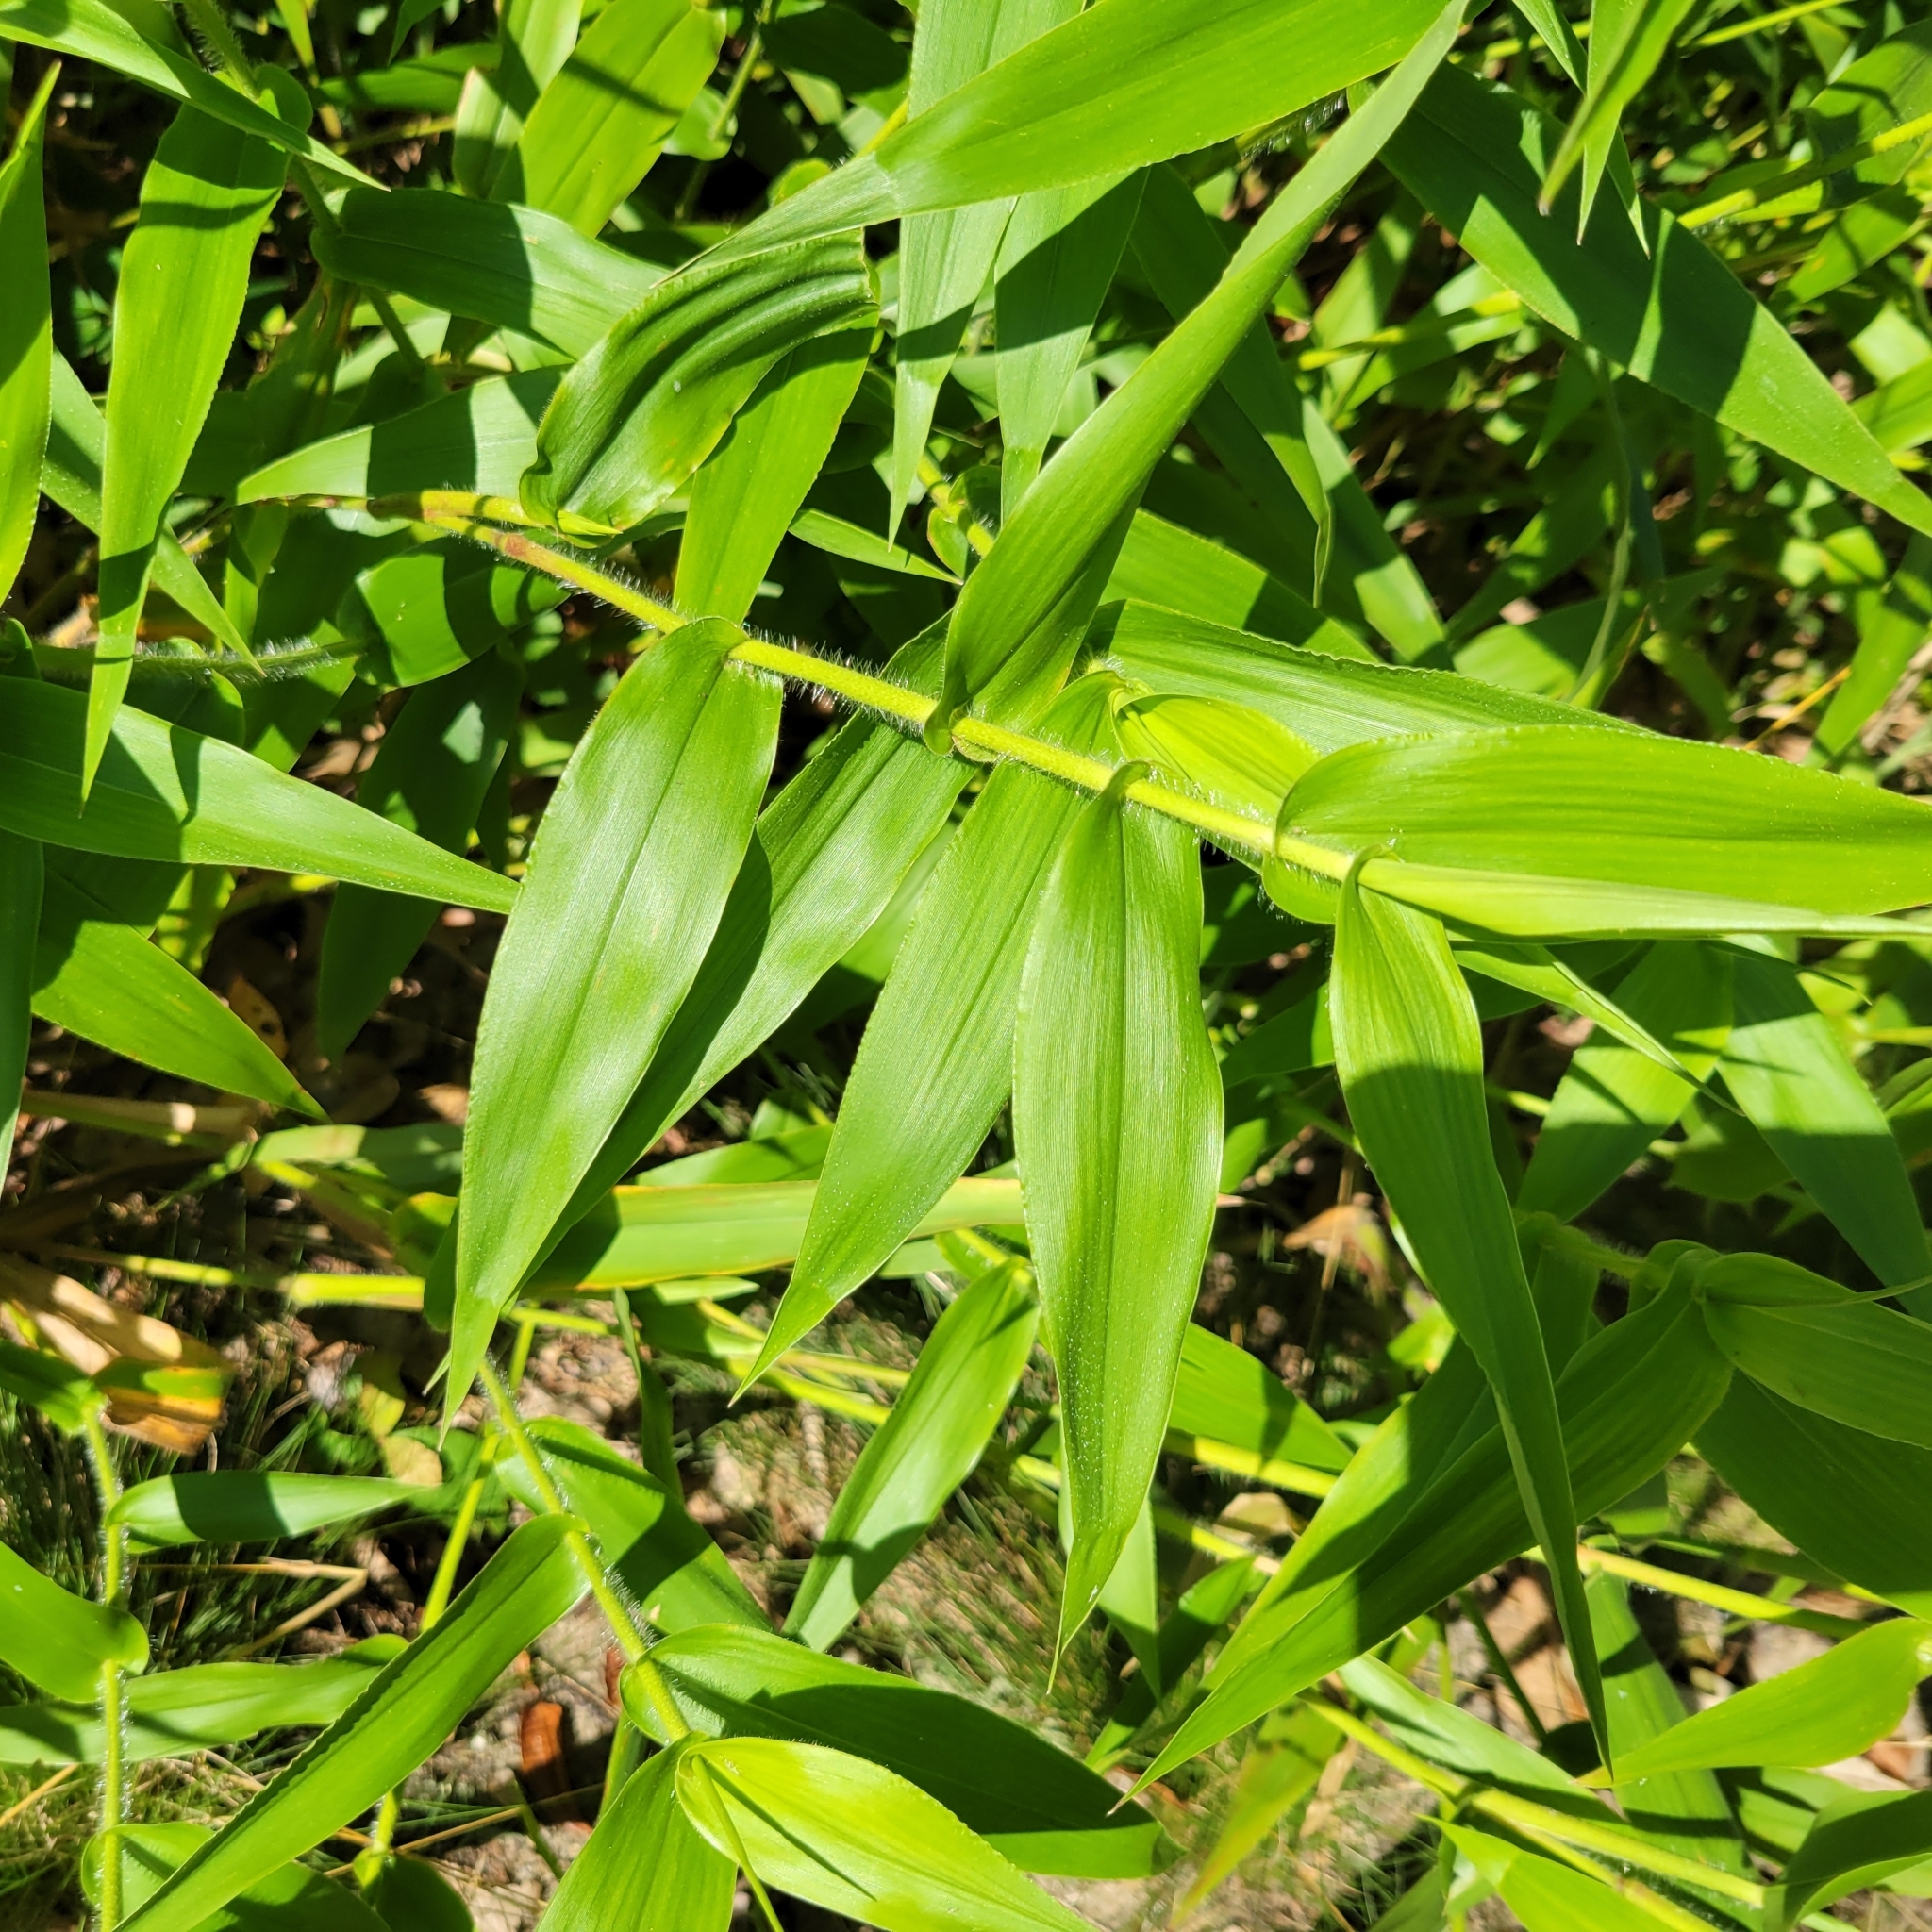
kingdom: Plantae
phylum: Tracheophyta
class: Liliopsida
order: Poales
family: Poaceae
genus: Dichanthelium
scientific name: Dichanthelium clandestinum
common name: Deer-tongue grass
